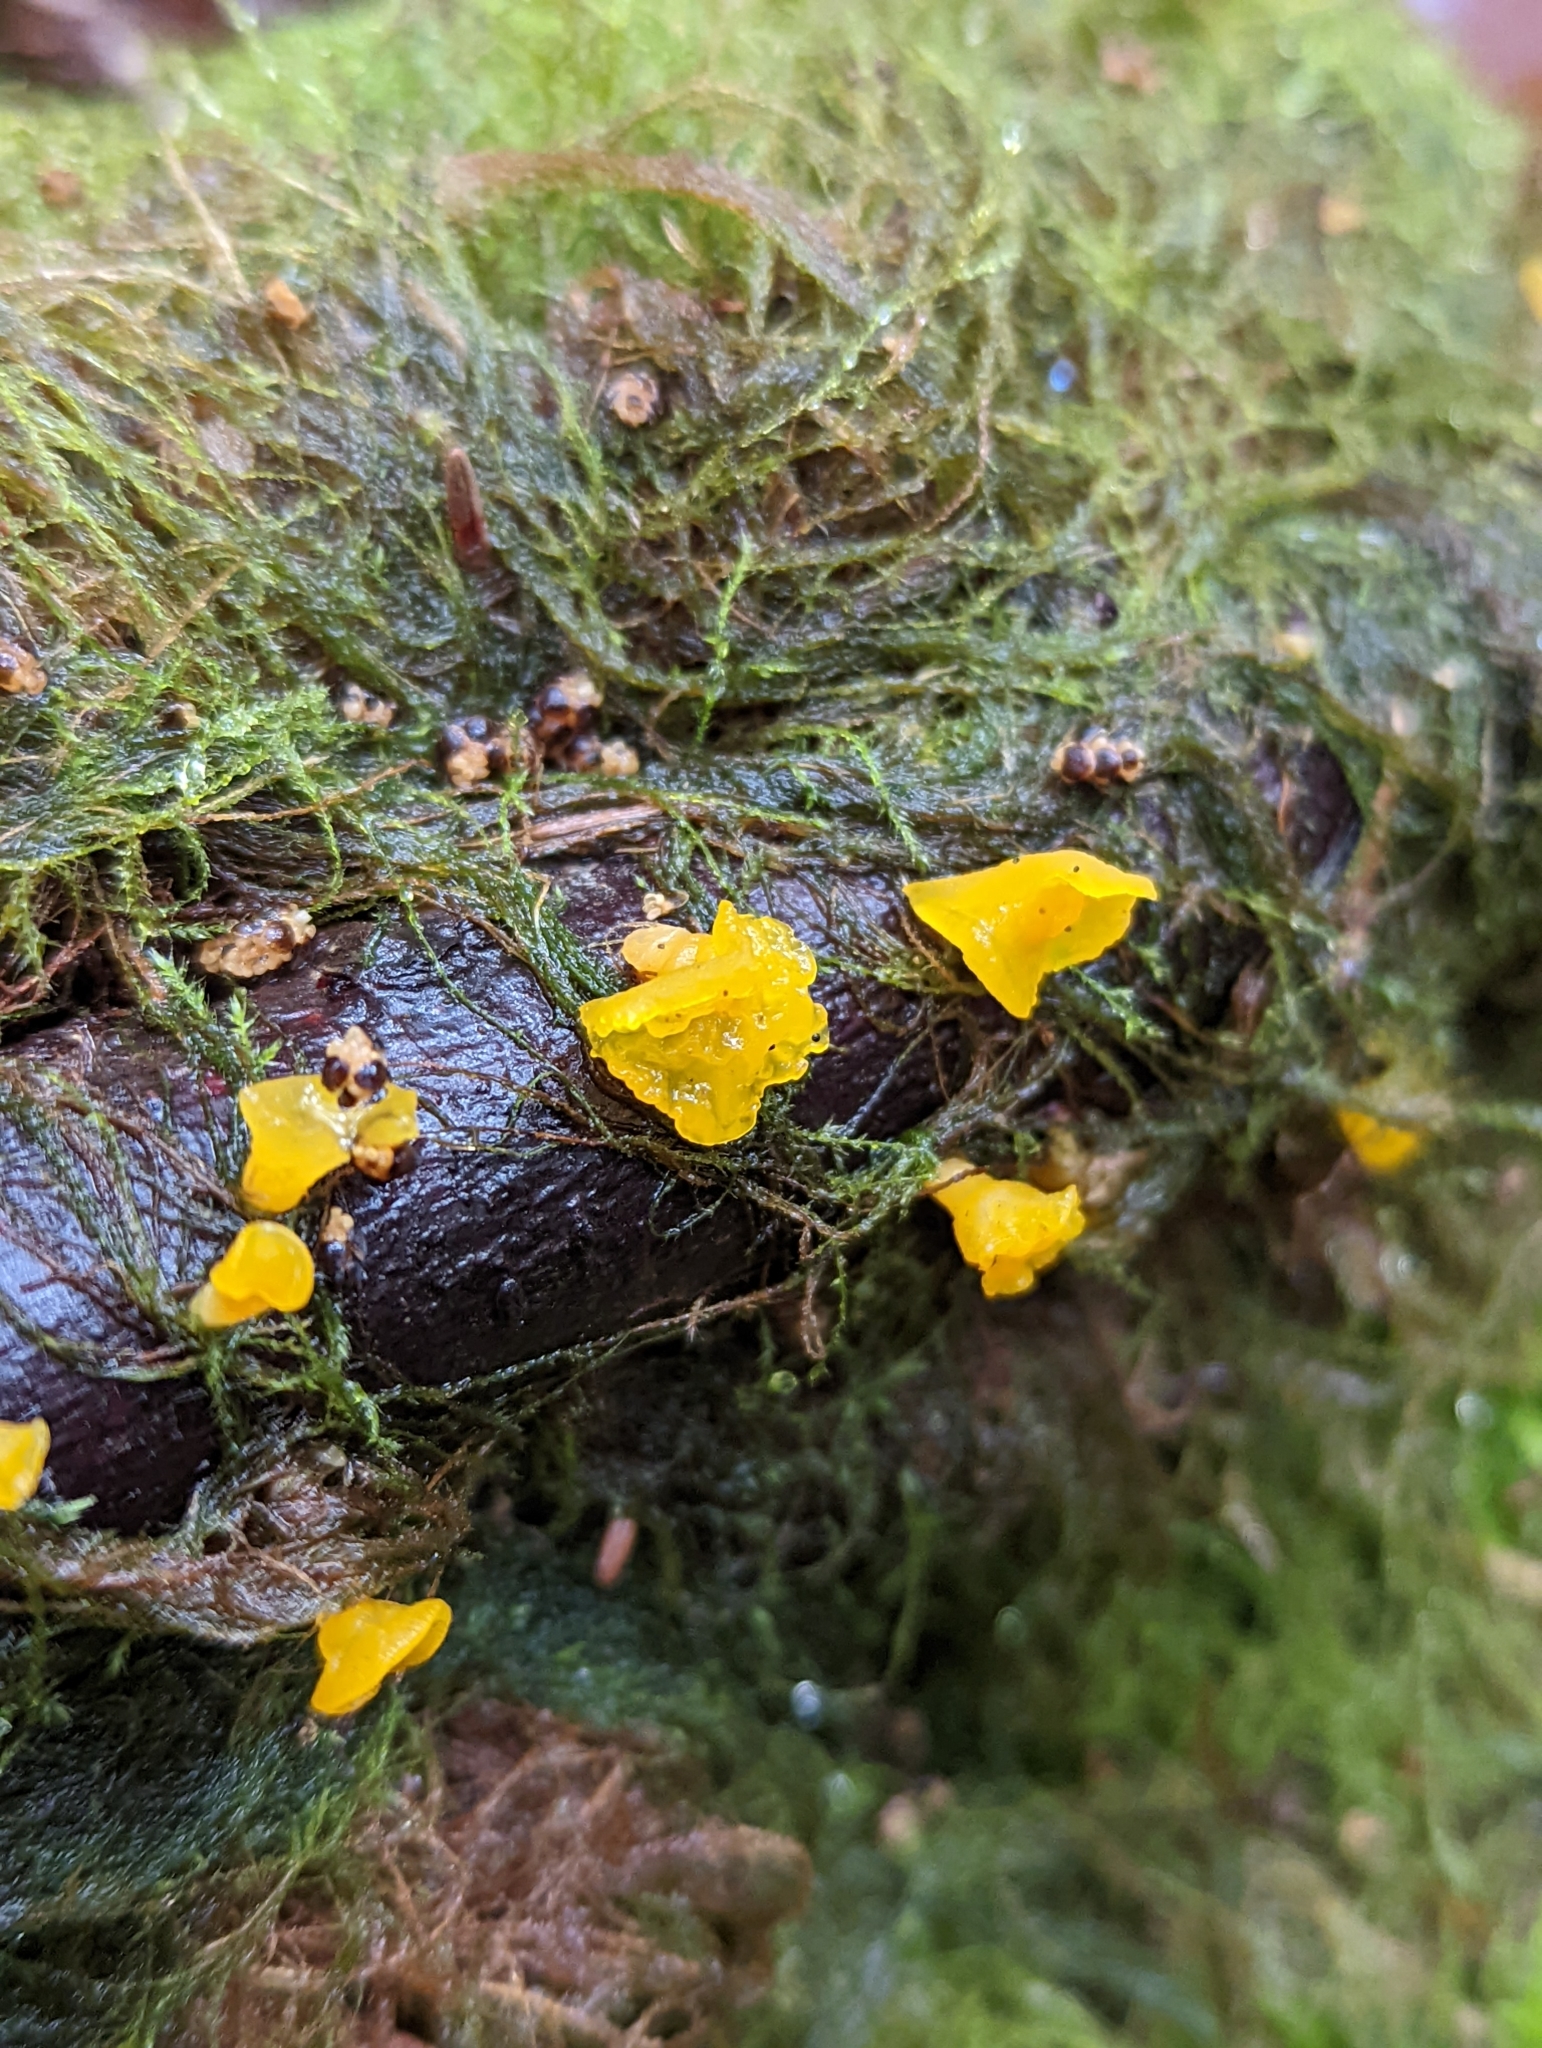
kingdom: Fungi
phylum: Basidiomycota
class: Dacrymycetes
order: Dacrymycetales
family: Dacrymycetaceae
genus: Guepiniopsis
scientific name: Guepiniopsis alpina
